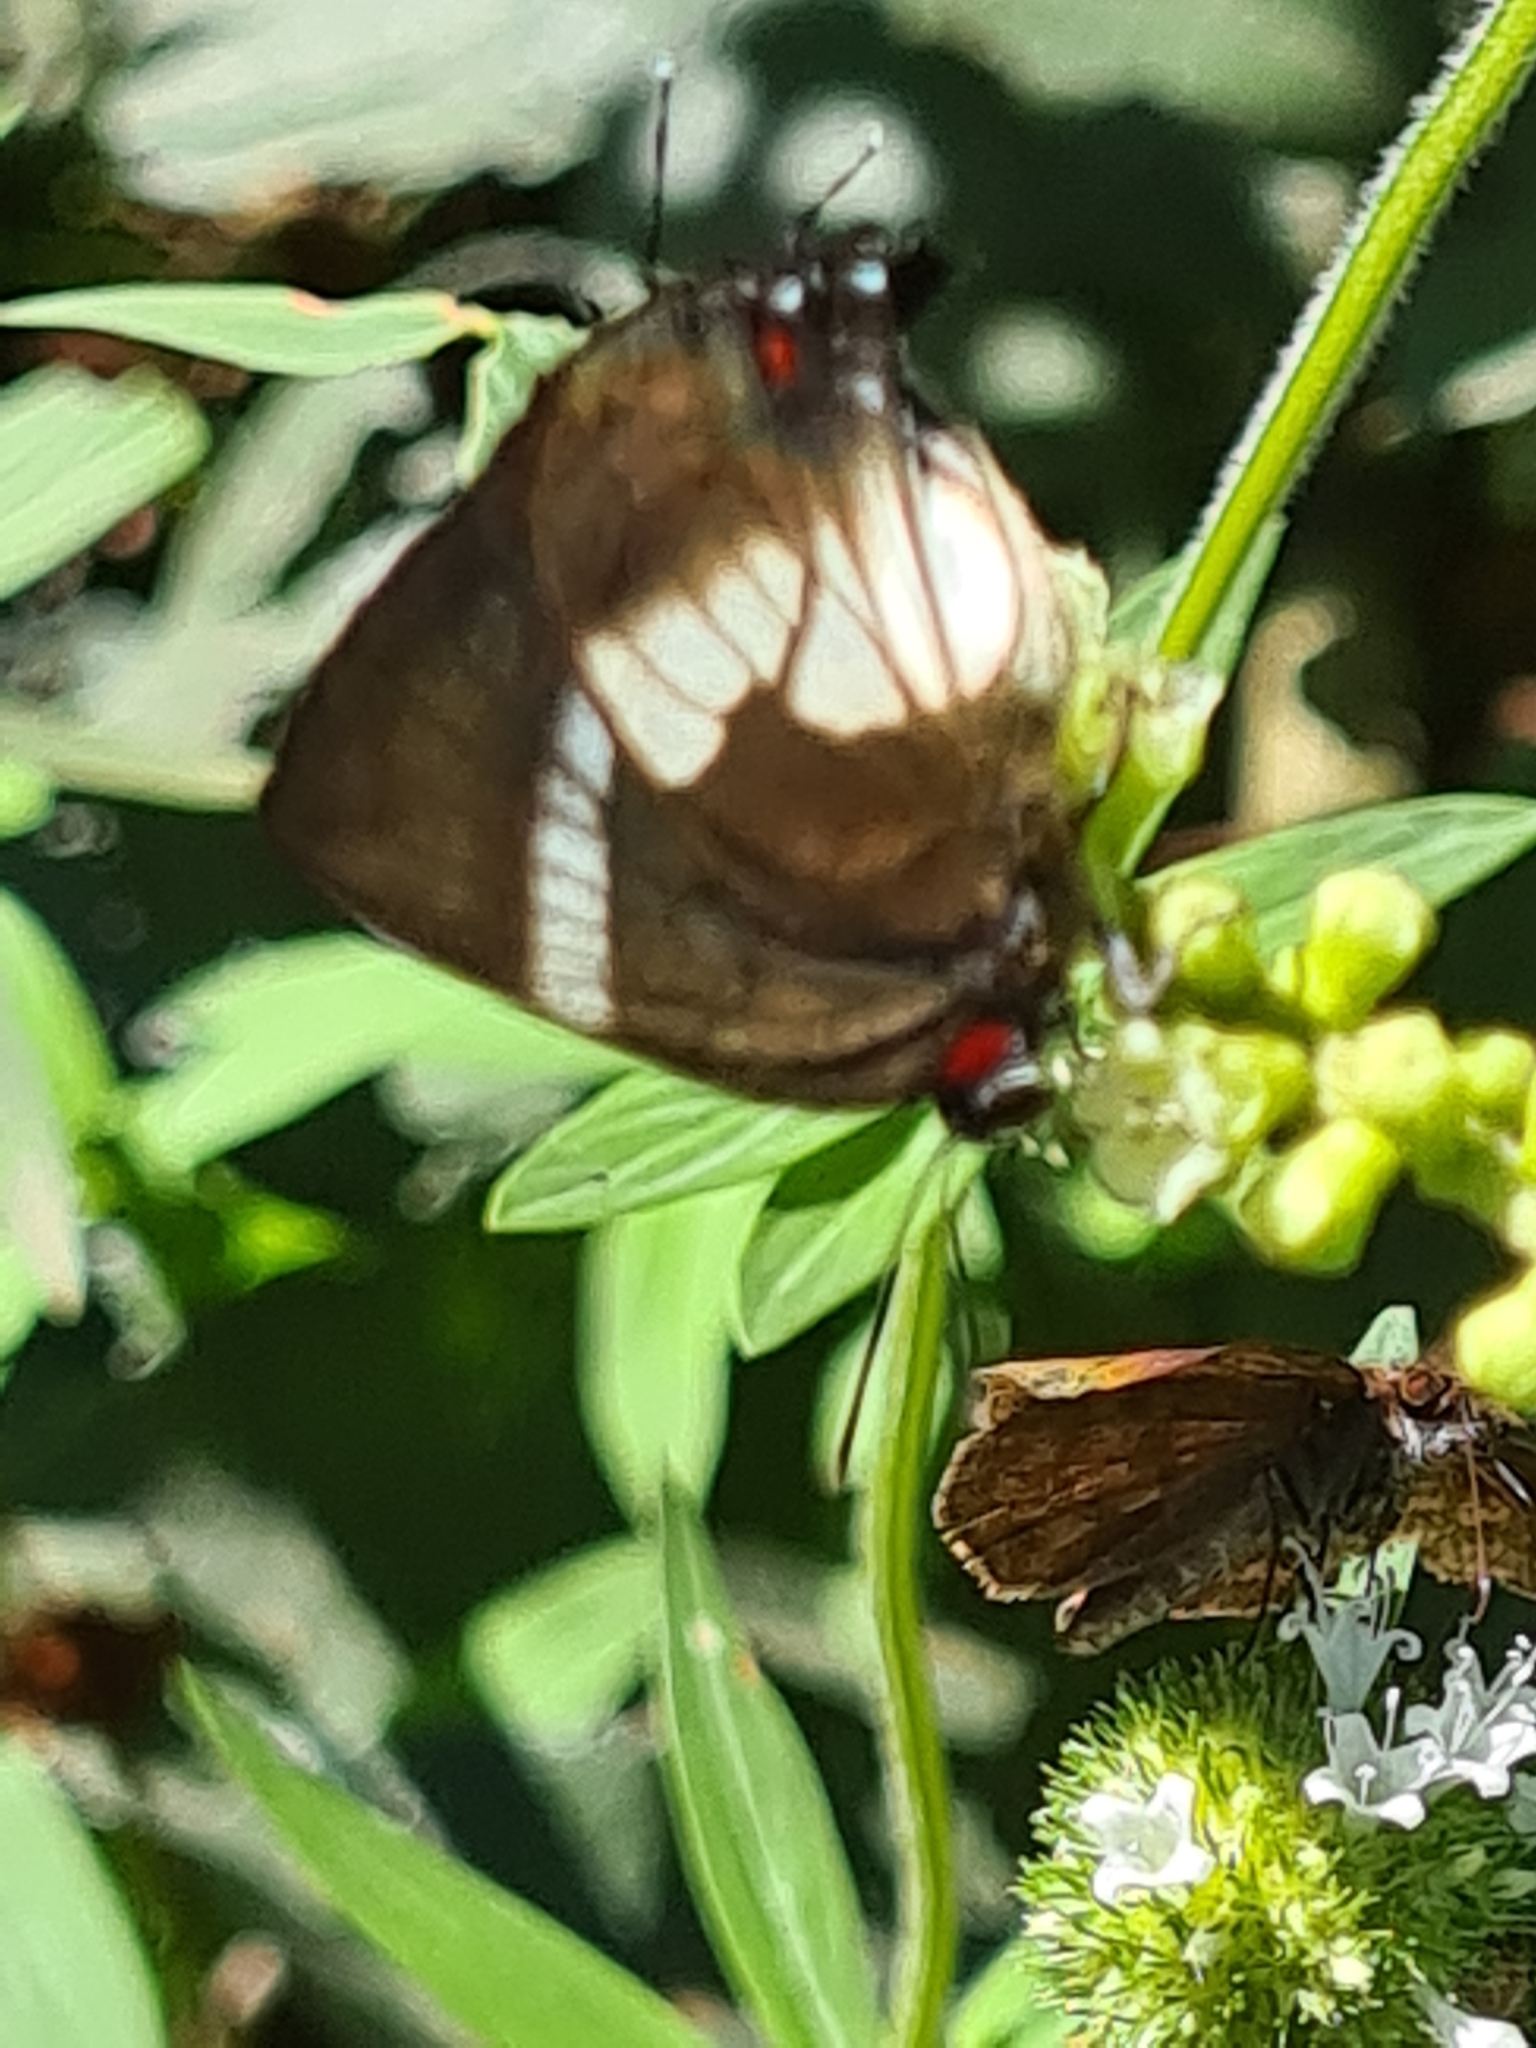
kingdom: Animalia
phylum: Arthropoda
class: Insecta
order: Lepidoptera
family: Lycaenidae
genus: Panthiades
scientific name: Panthiades pelion
